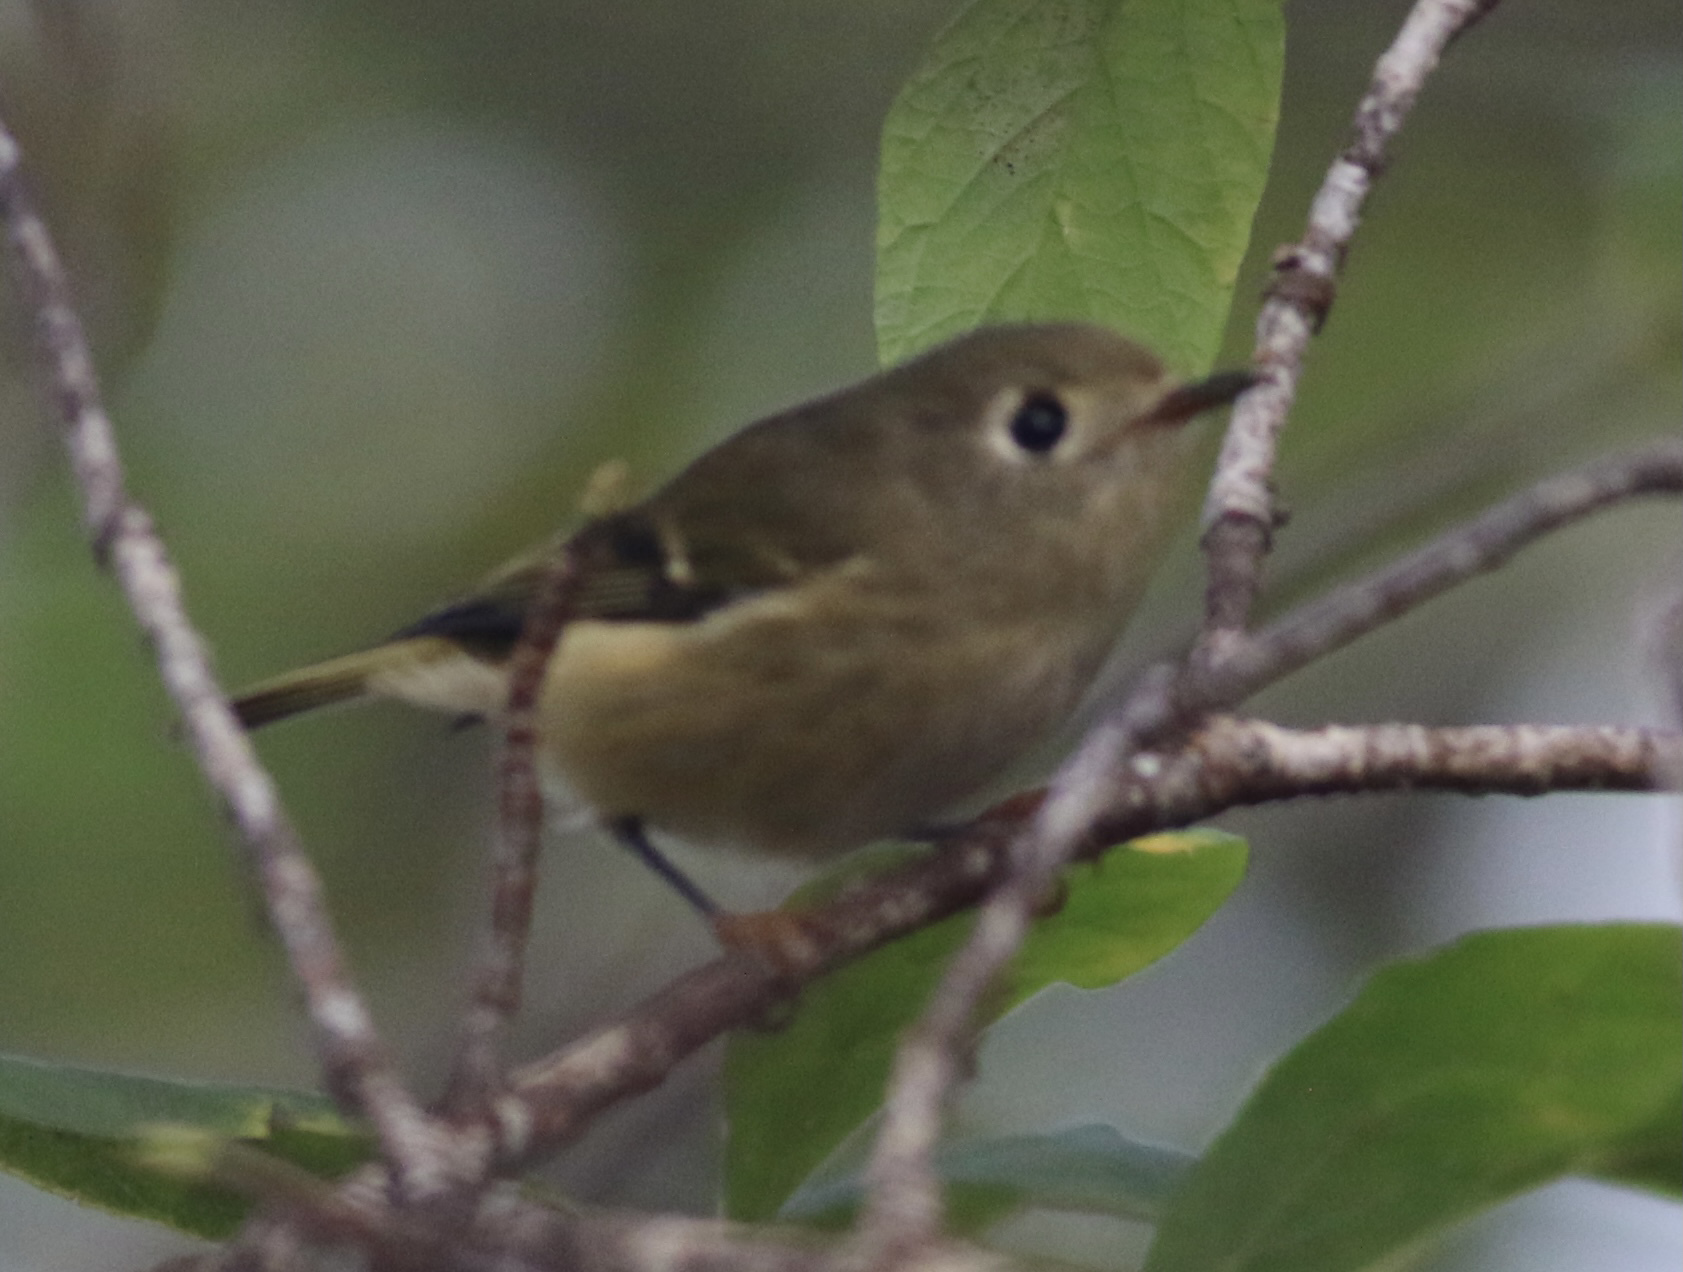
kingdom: Animalia
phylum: Chordata
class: Aves
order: Passeriformes
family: Regulidae
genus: Regulus
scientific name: Regulus calendula
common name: Ruby-crowned kinglet
